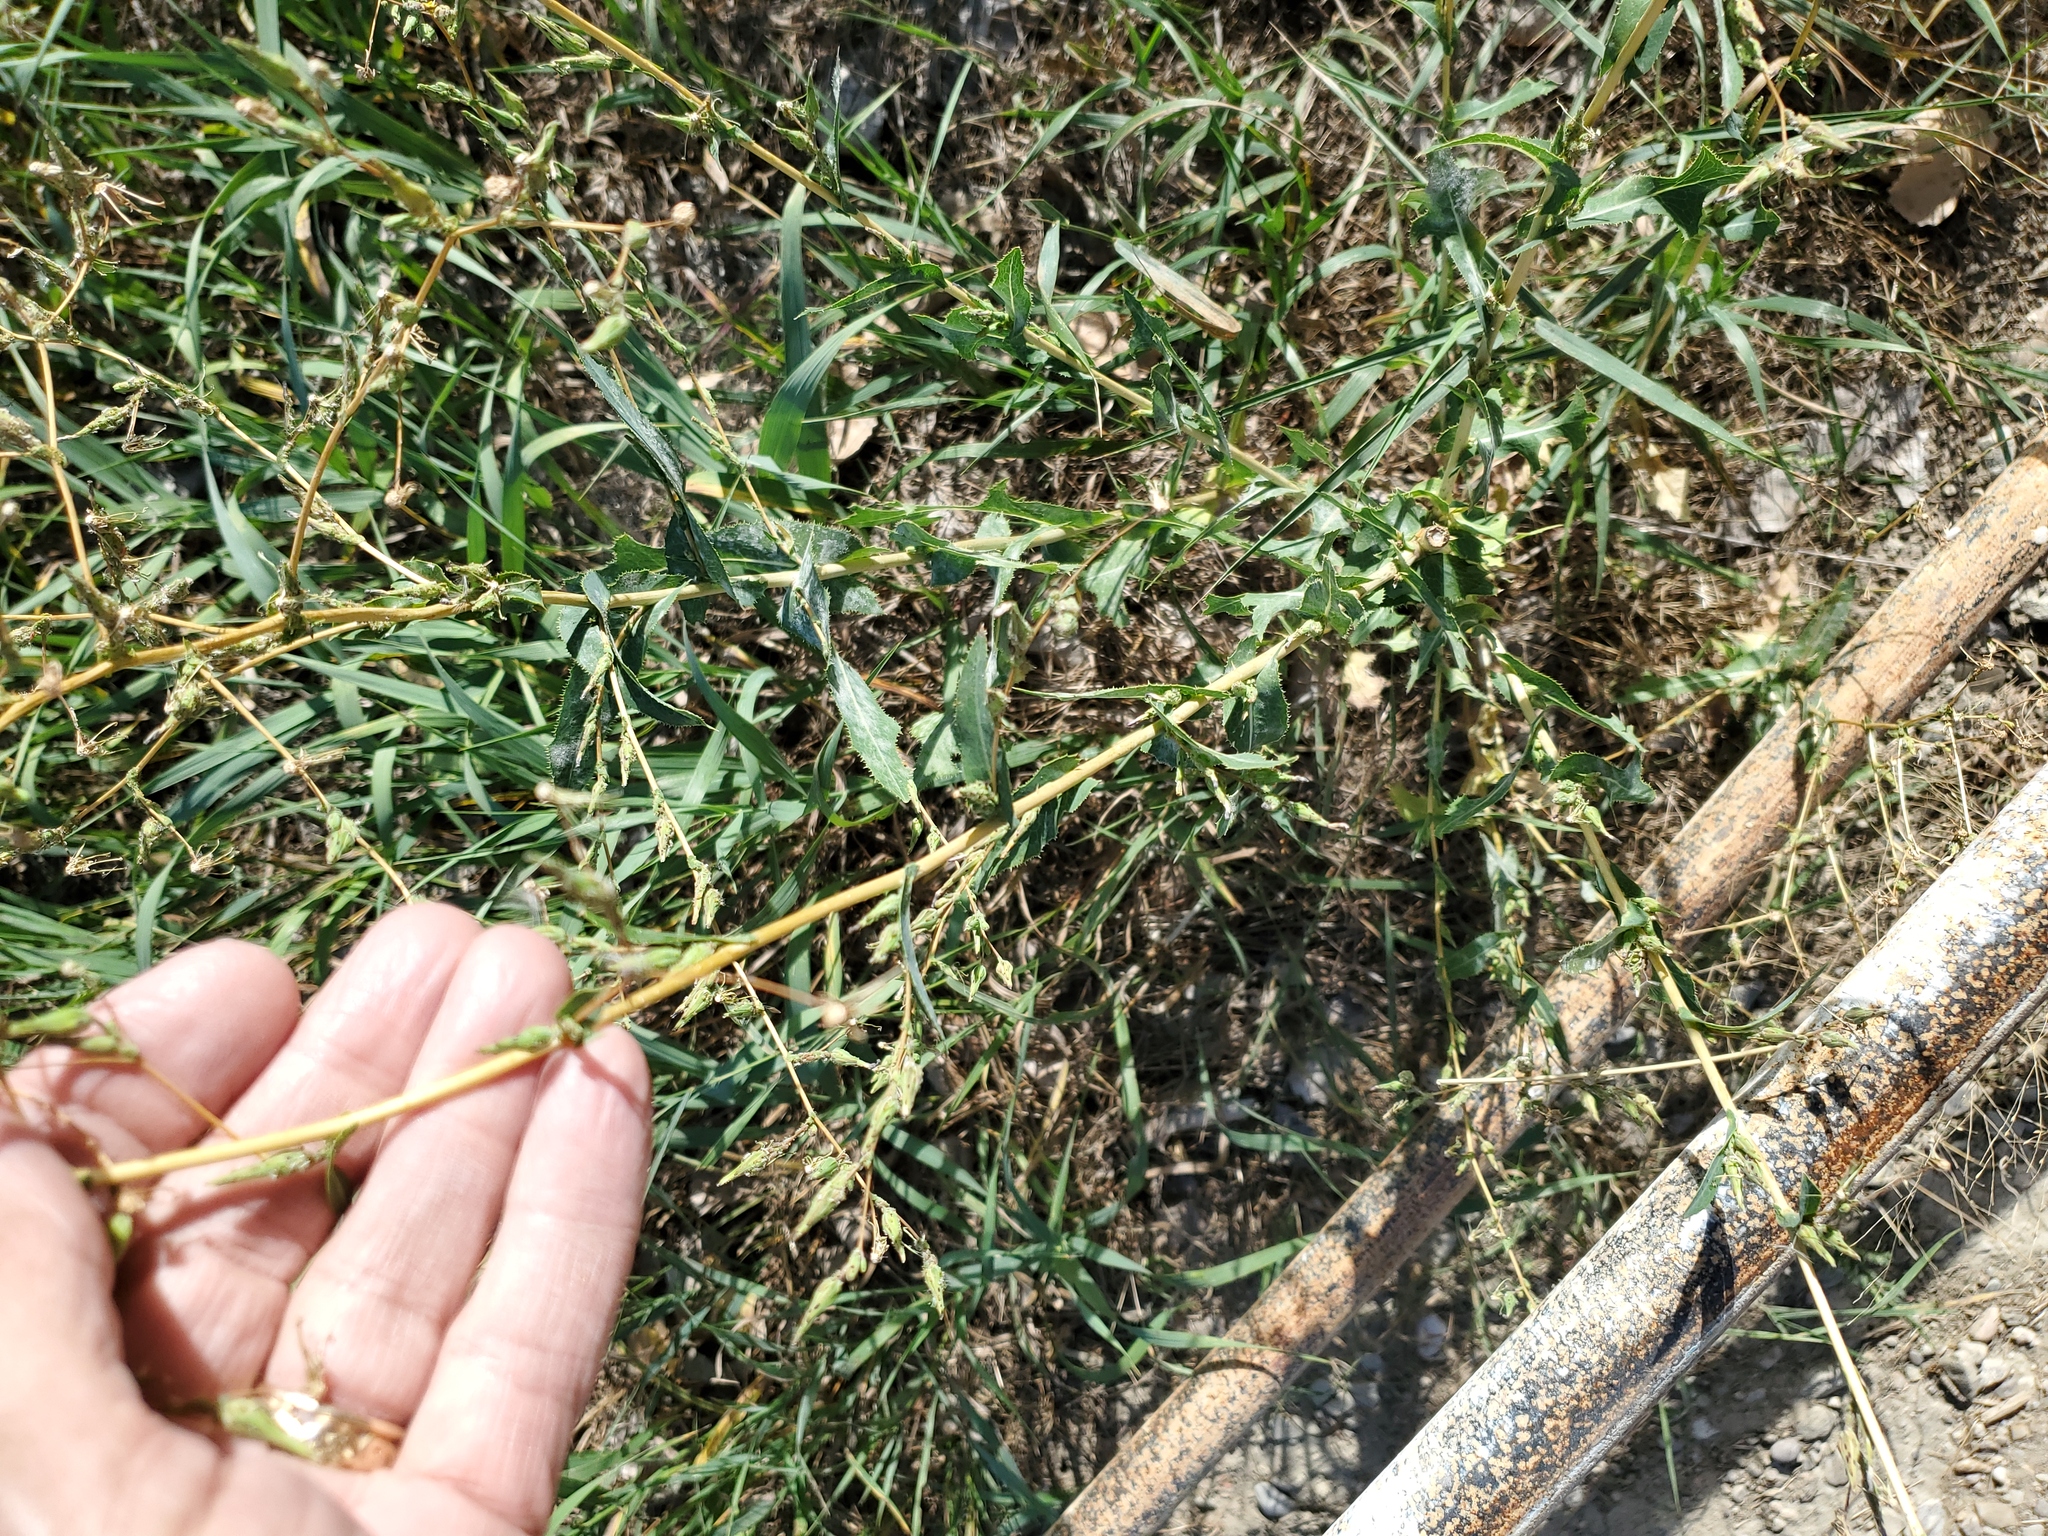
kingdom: Plantae
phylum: Tracheophyta
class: Magnoliopsida
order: Asterales
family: Asteraceae
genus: Lactuca
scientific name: Lactuca serriola
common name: Prickly lettuce
